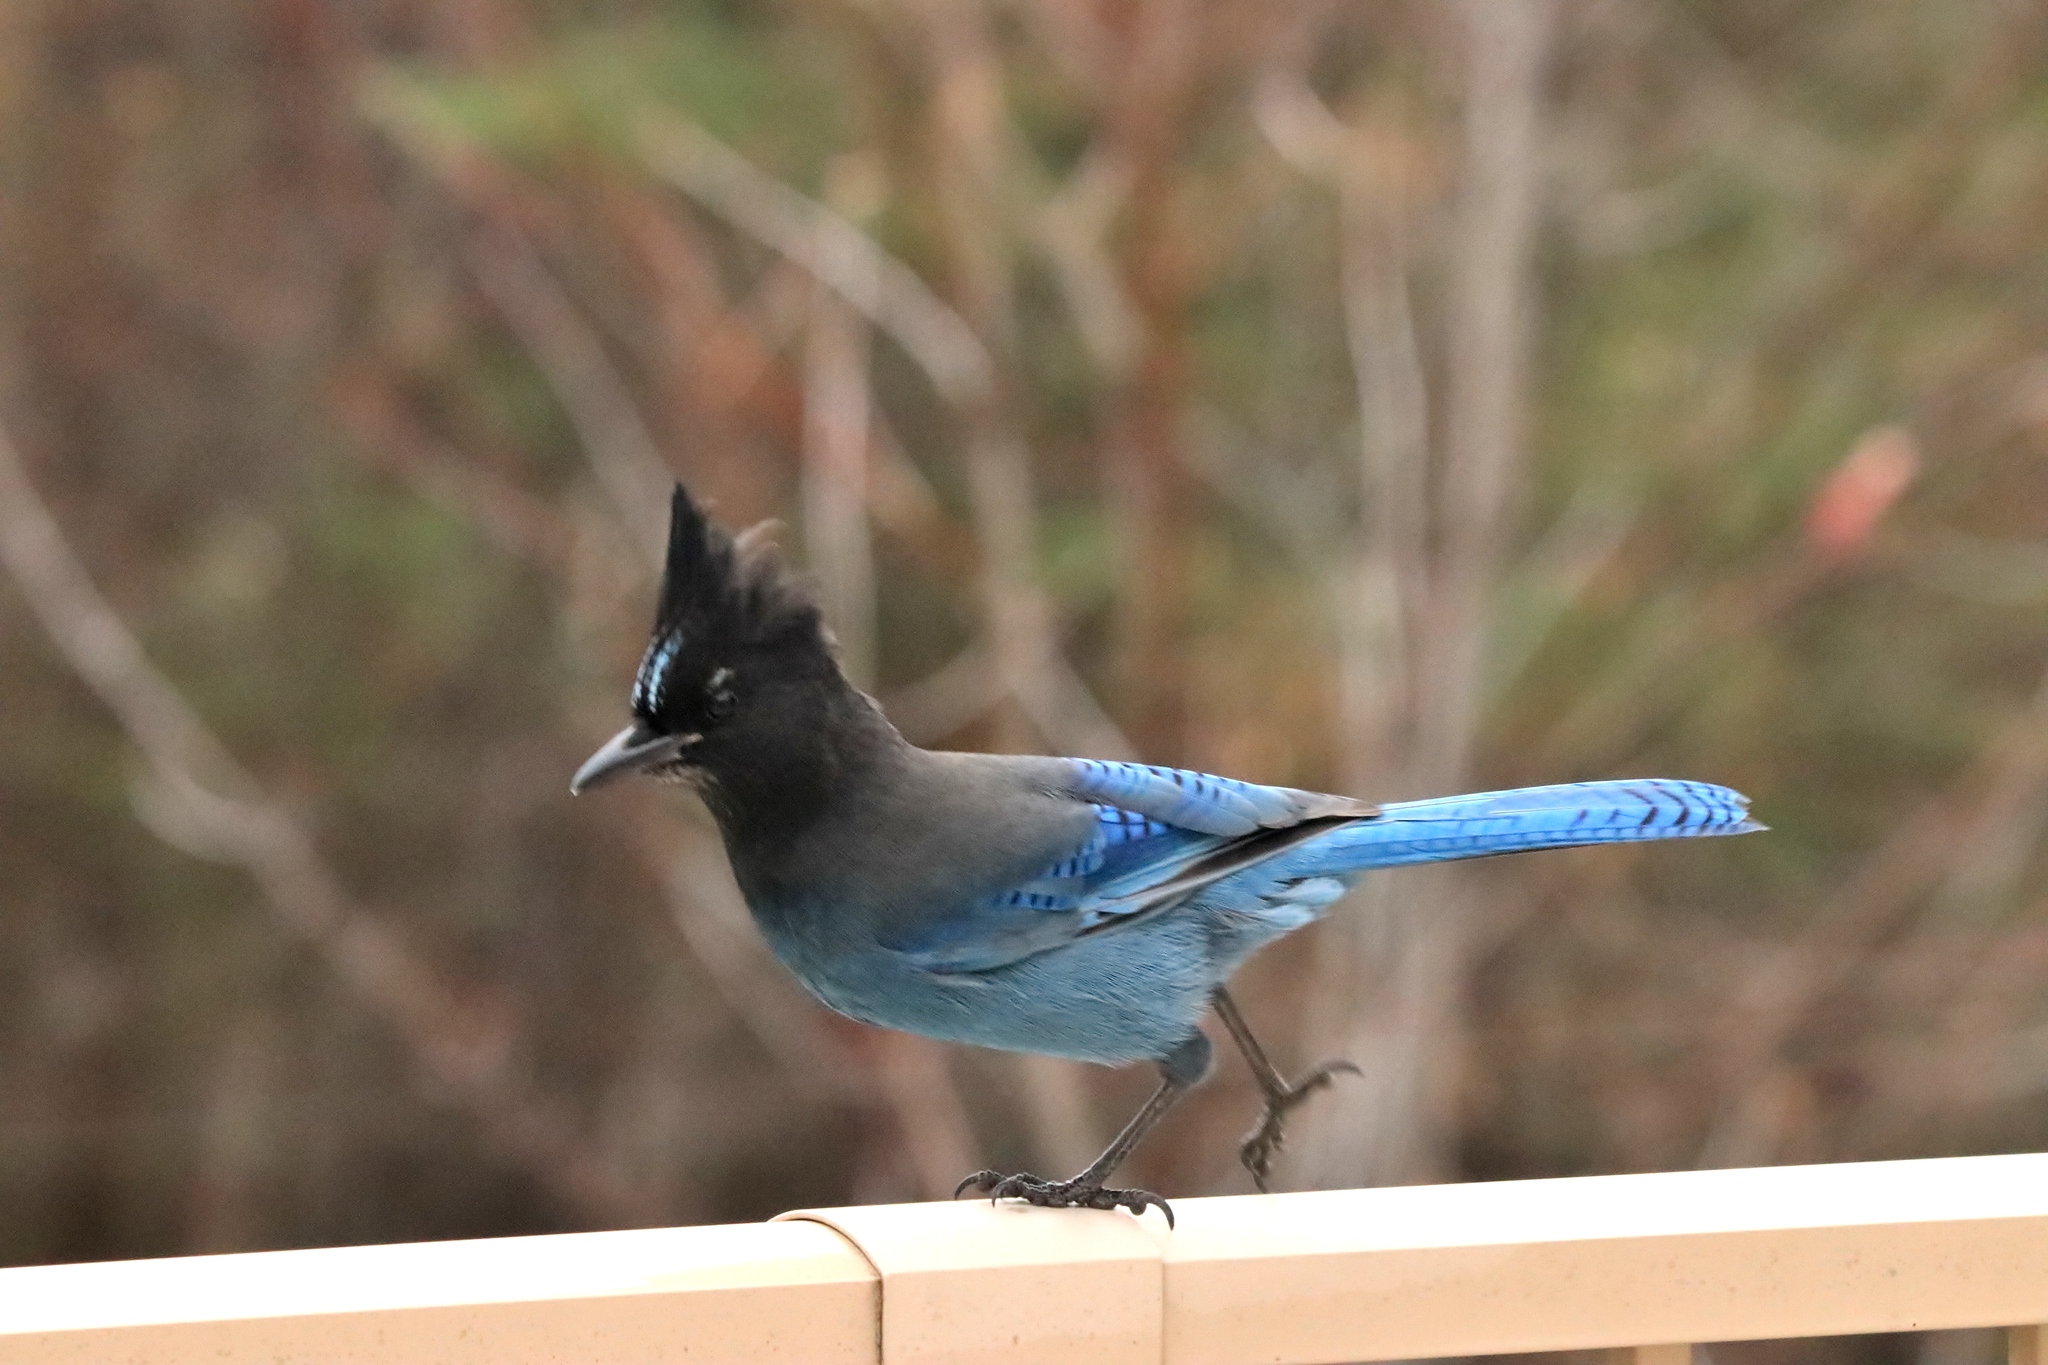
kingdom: Animalia
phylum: Chordata
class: Aves
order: Passeriformes
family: Corvidae
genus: Cyanocitta
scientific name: Cyanocitta stelleri
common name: Steller's jay
